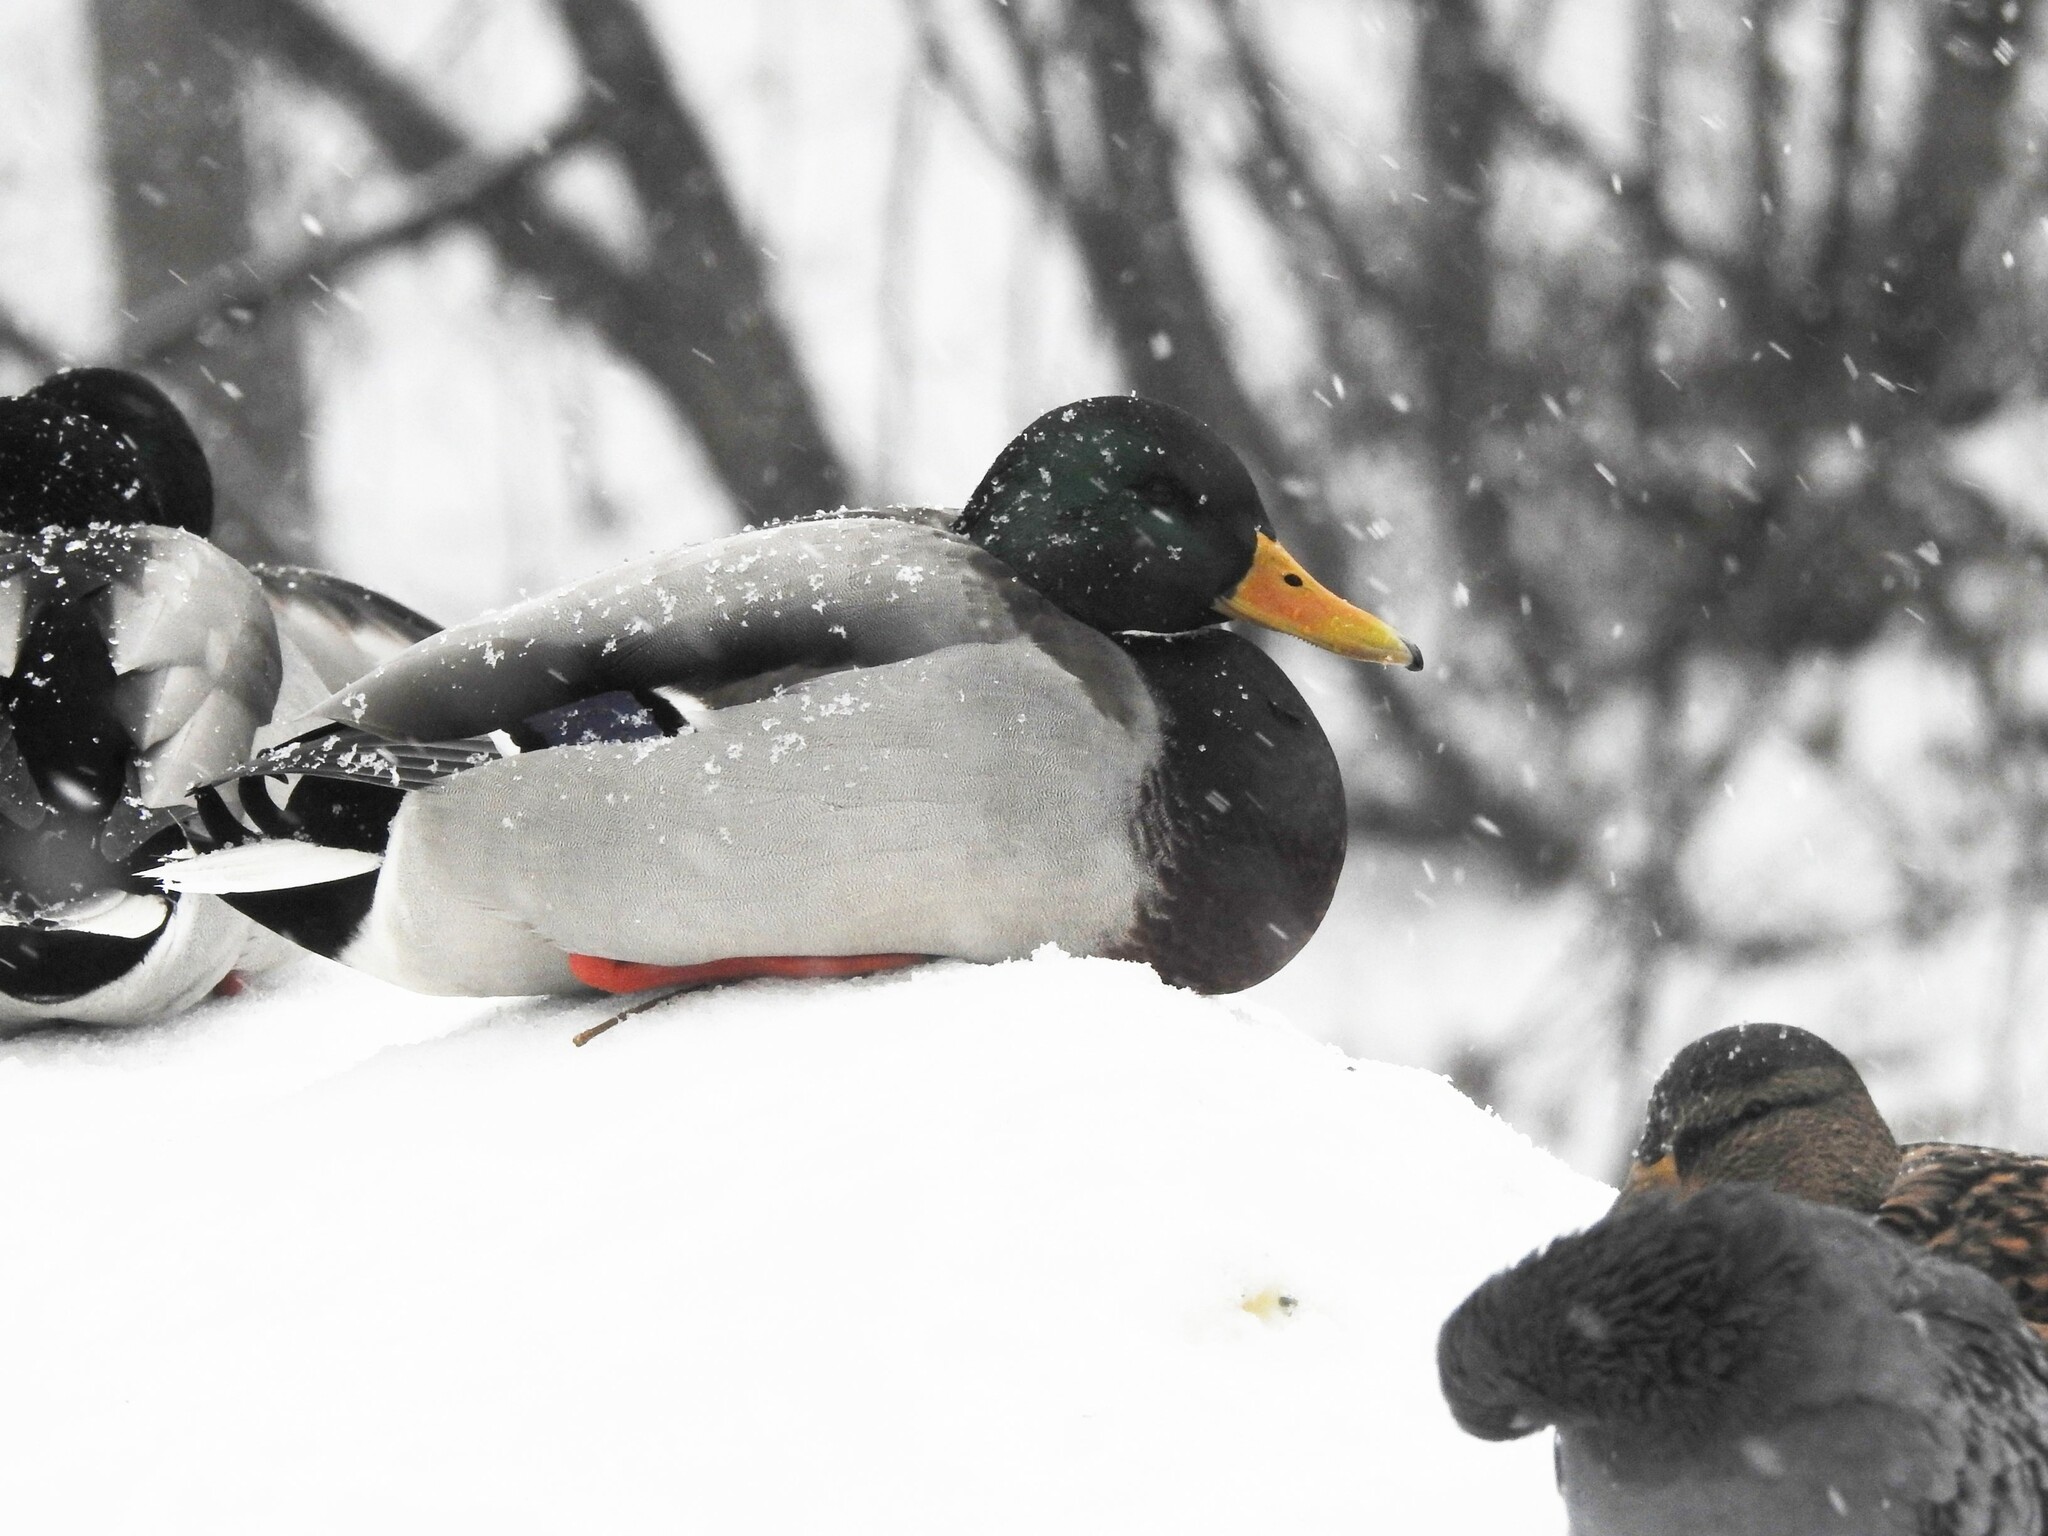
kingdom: Animalia
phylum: Chordata
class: Aves
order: Anseriformes
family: Anatidae
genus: Anas
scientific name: Anas platyrhynchos
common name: Mallard
